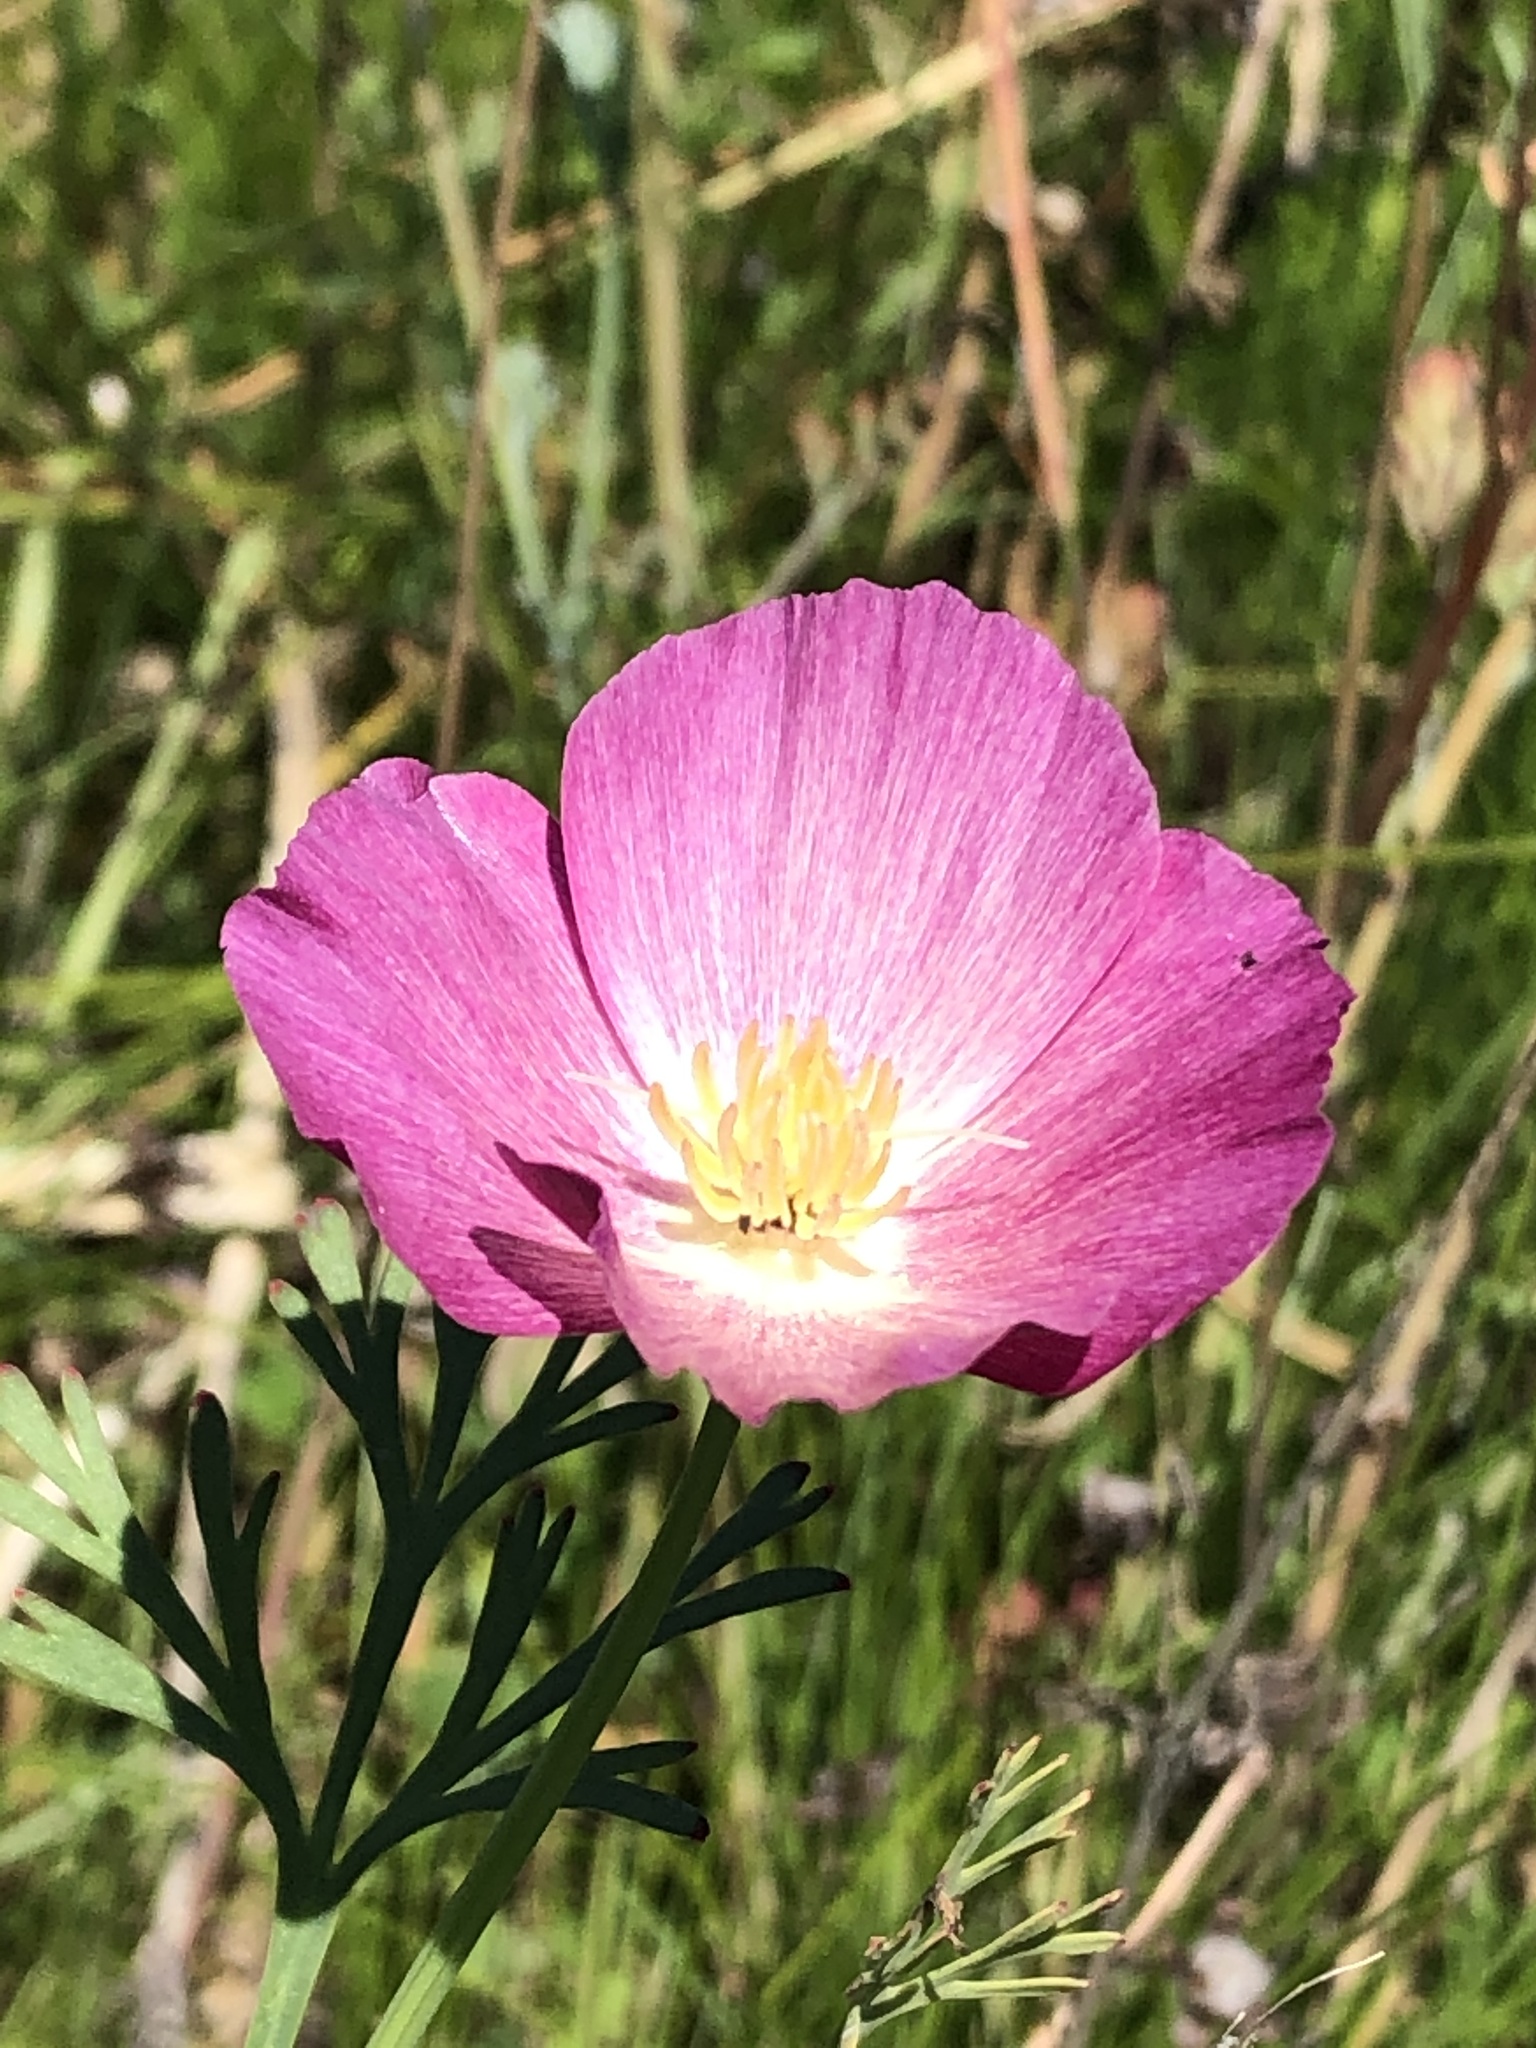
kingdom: Plantae
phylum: Tracheophyta
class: Magnoliopsida
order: Ranunculales
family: Papaveraceae
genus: Eschscholzia
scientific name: Eschscholzia californica
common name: California poppy
